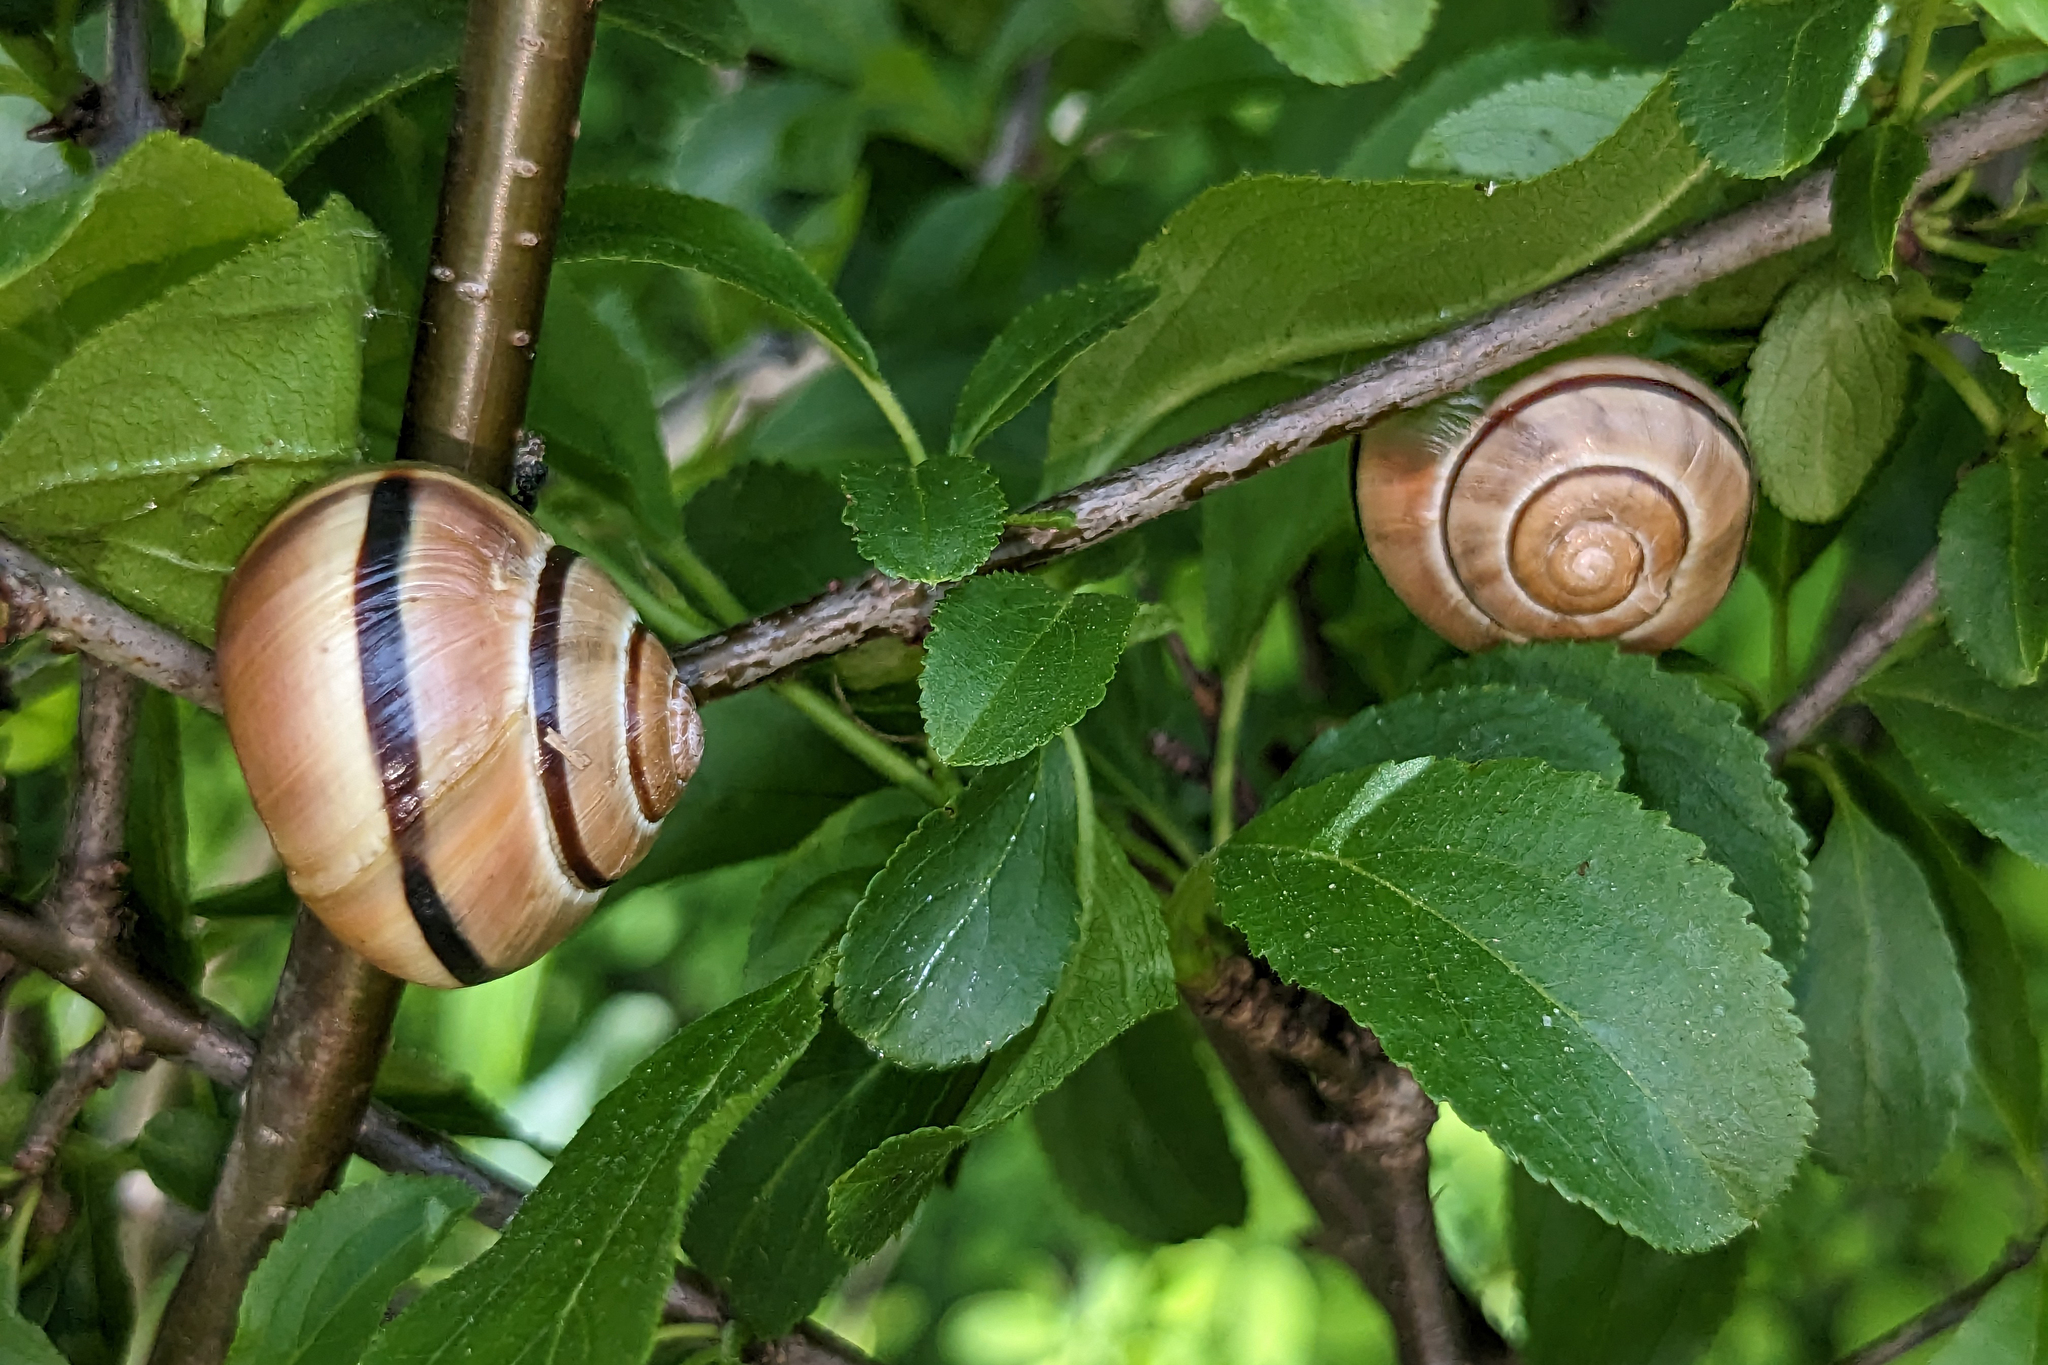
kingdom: Animalia
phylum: Mollusca
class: Gastropoda
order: Stylommatophora
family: Helicidae
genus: Cepaea
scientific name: Cepaea nemoralis
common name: Grovesnail
